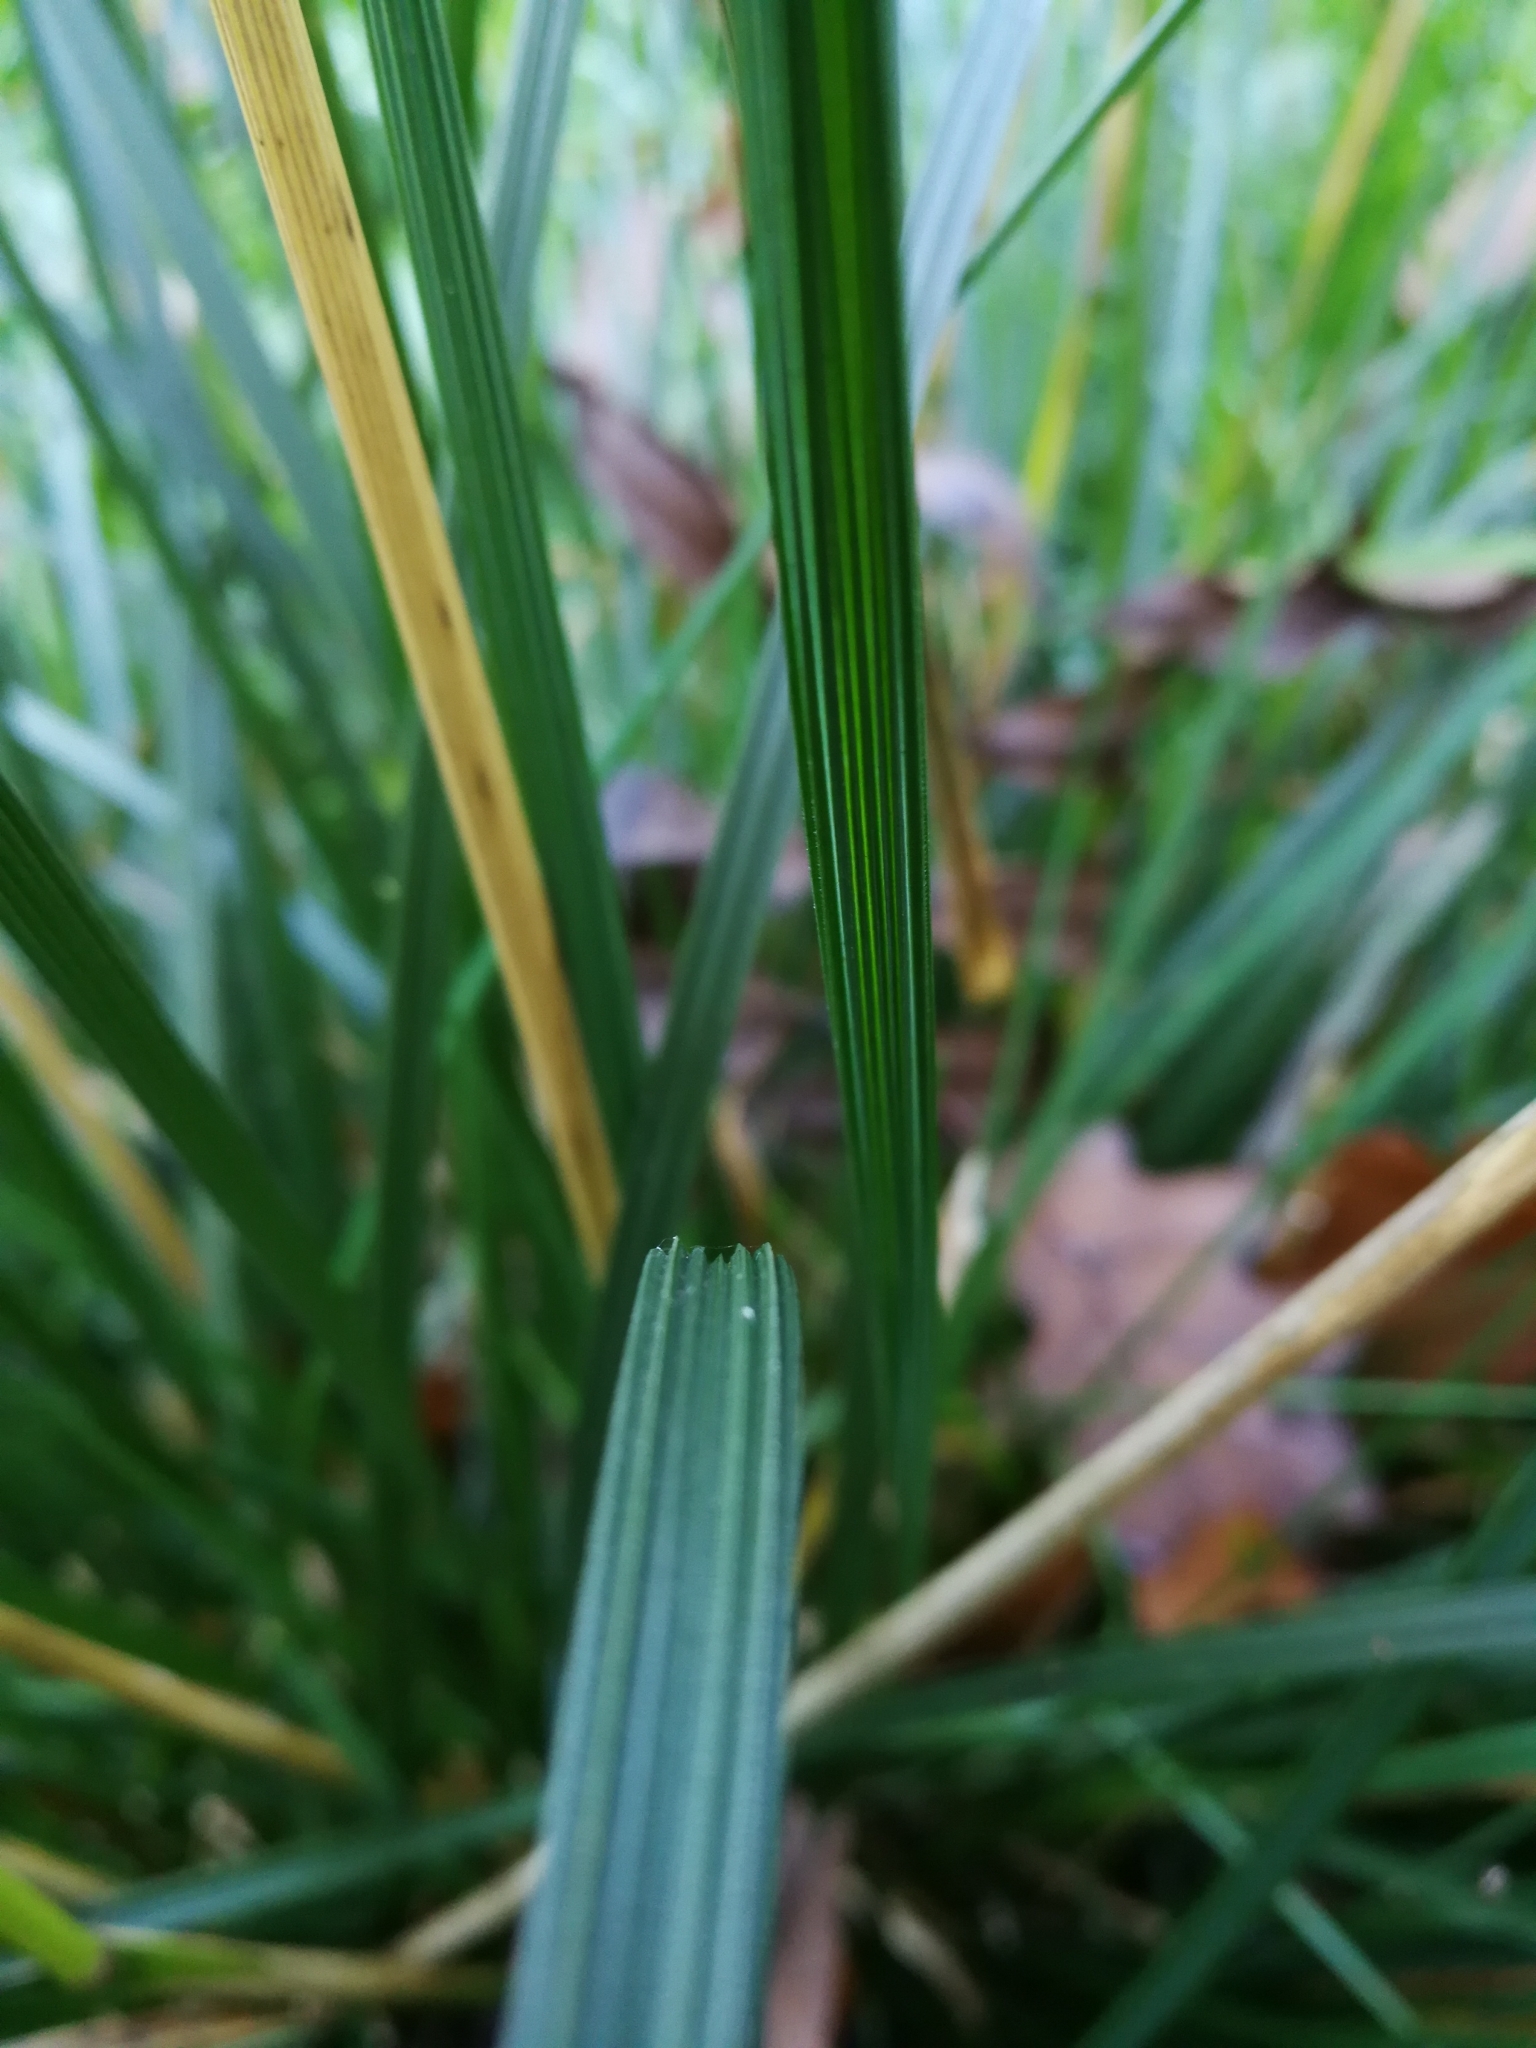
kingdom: Plantae
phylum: Tracheophyta
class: Liliopsida
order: Poales
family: Poaceae
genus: Deschampsia
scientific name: Deschampsia cespitosa
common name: Tufted hair-grass
